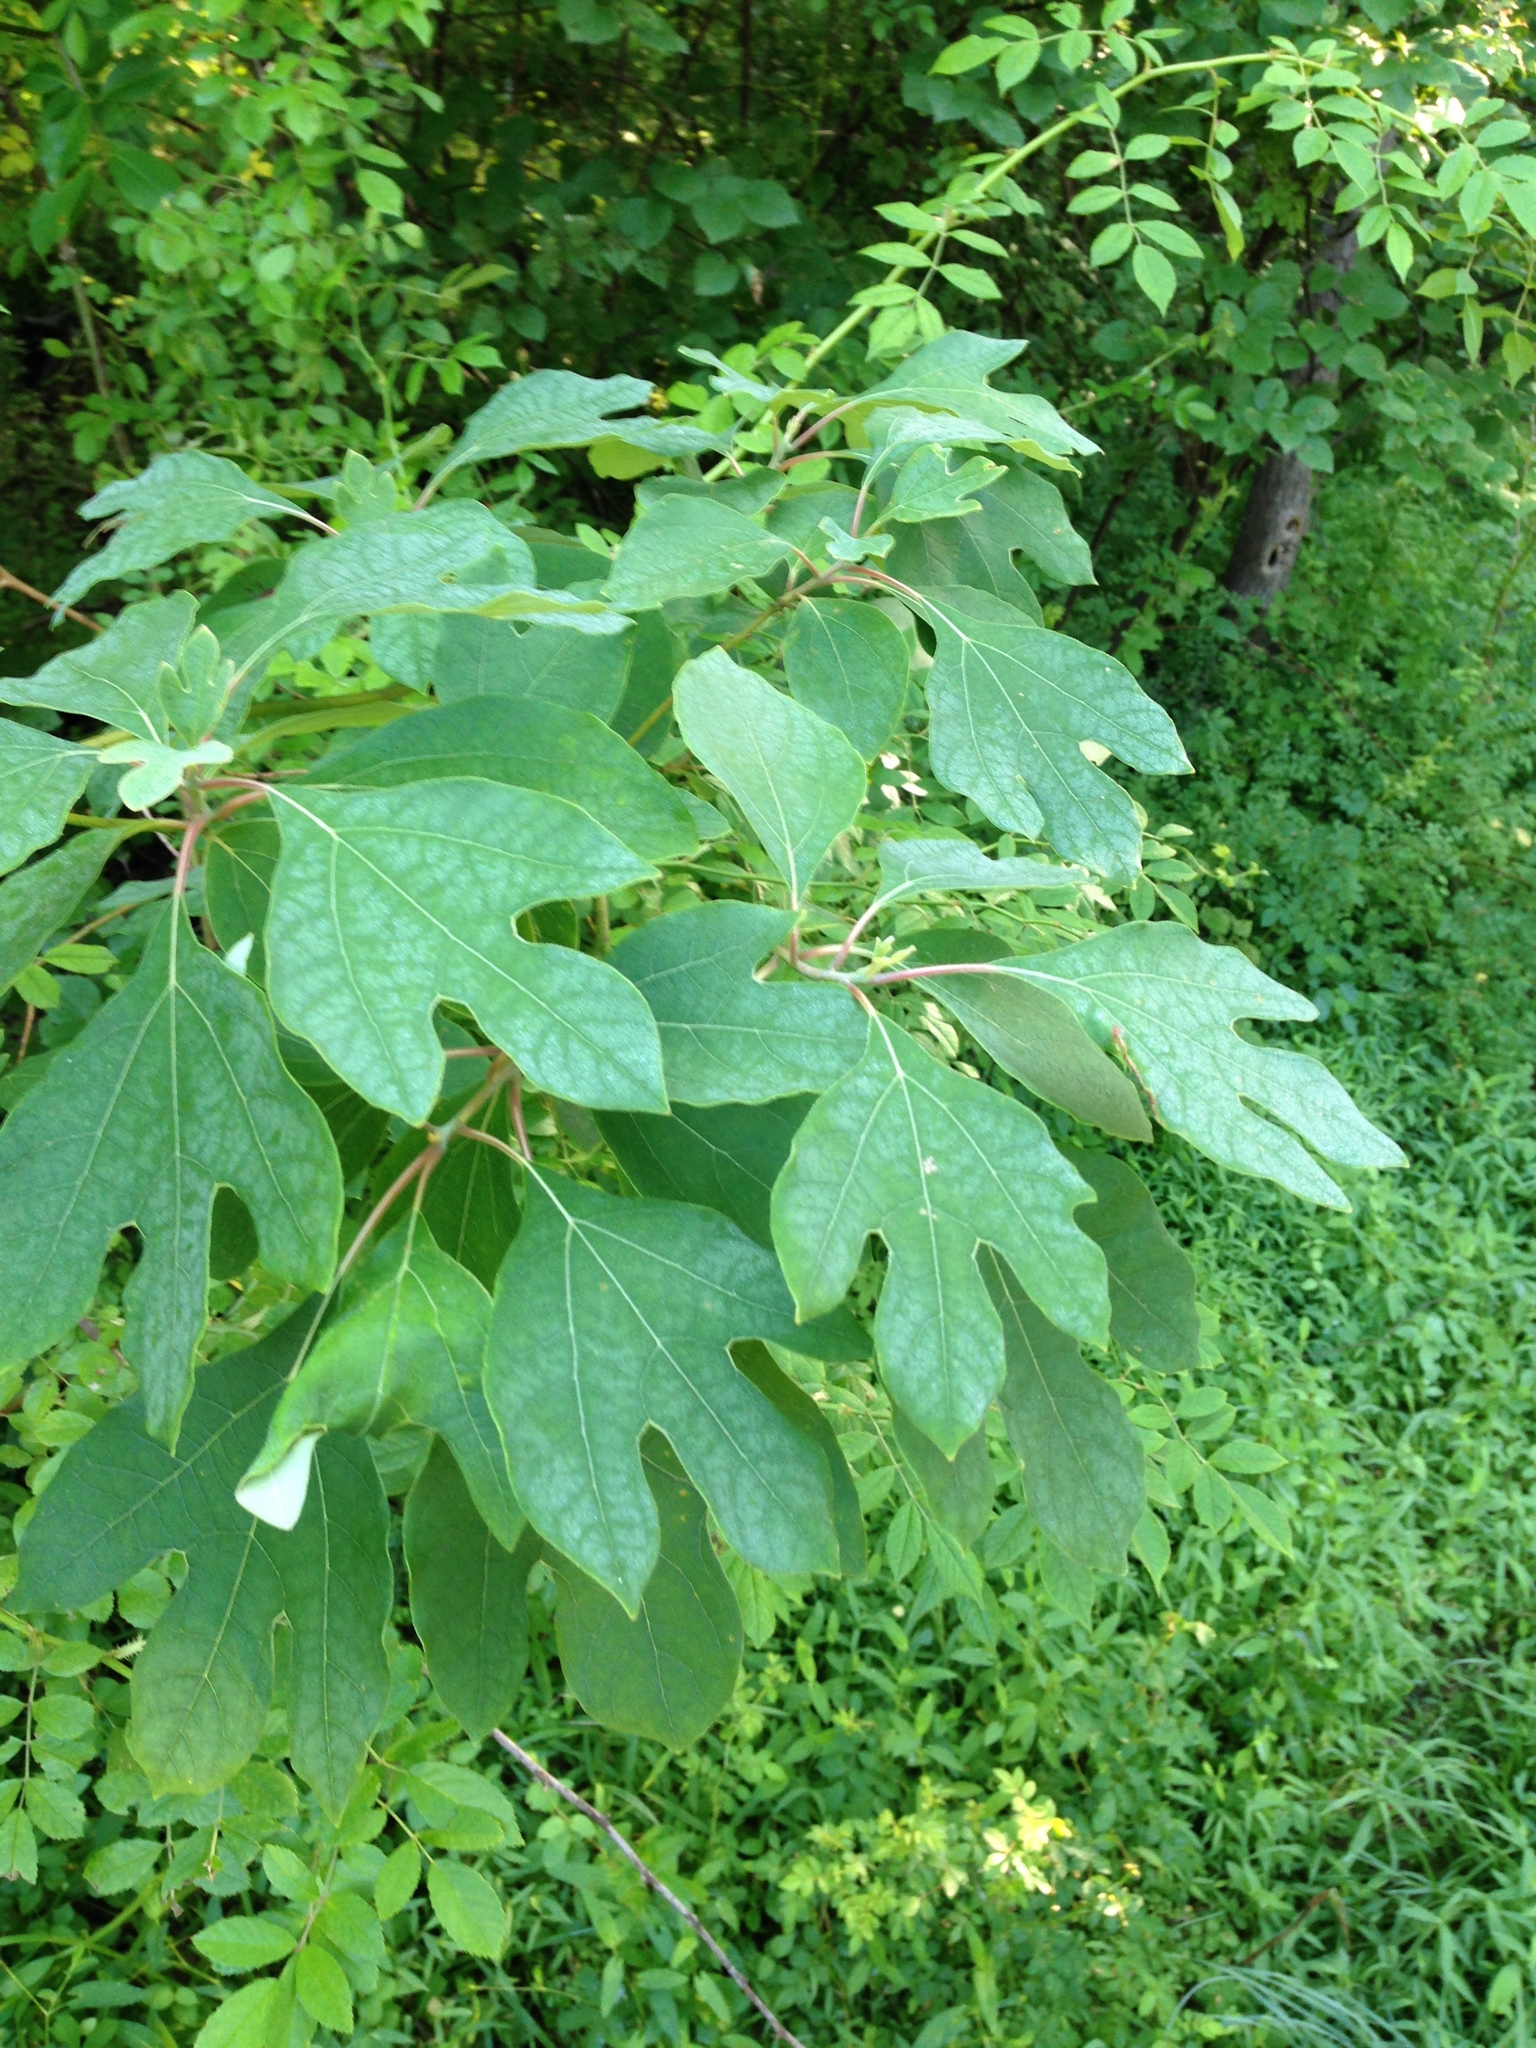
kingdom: Plantae
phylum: Tracheophyta
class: Magnoliopsida
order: Laurales
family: Lauraceae
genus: Sassafras
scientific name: Sassafras albidum
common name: Sassafras
